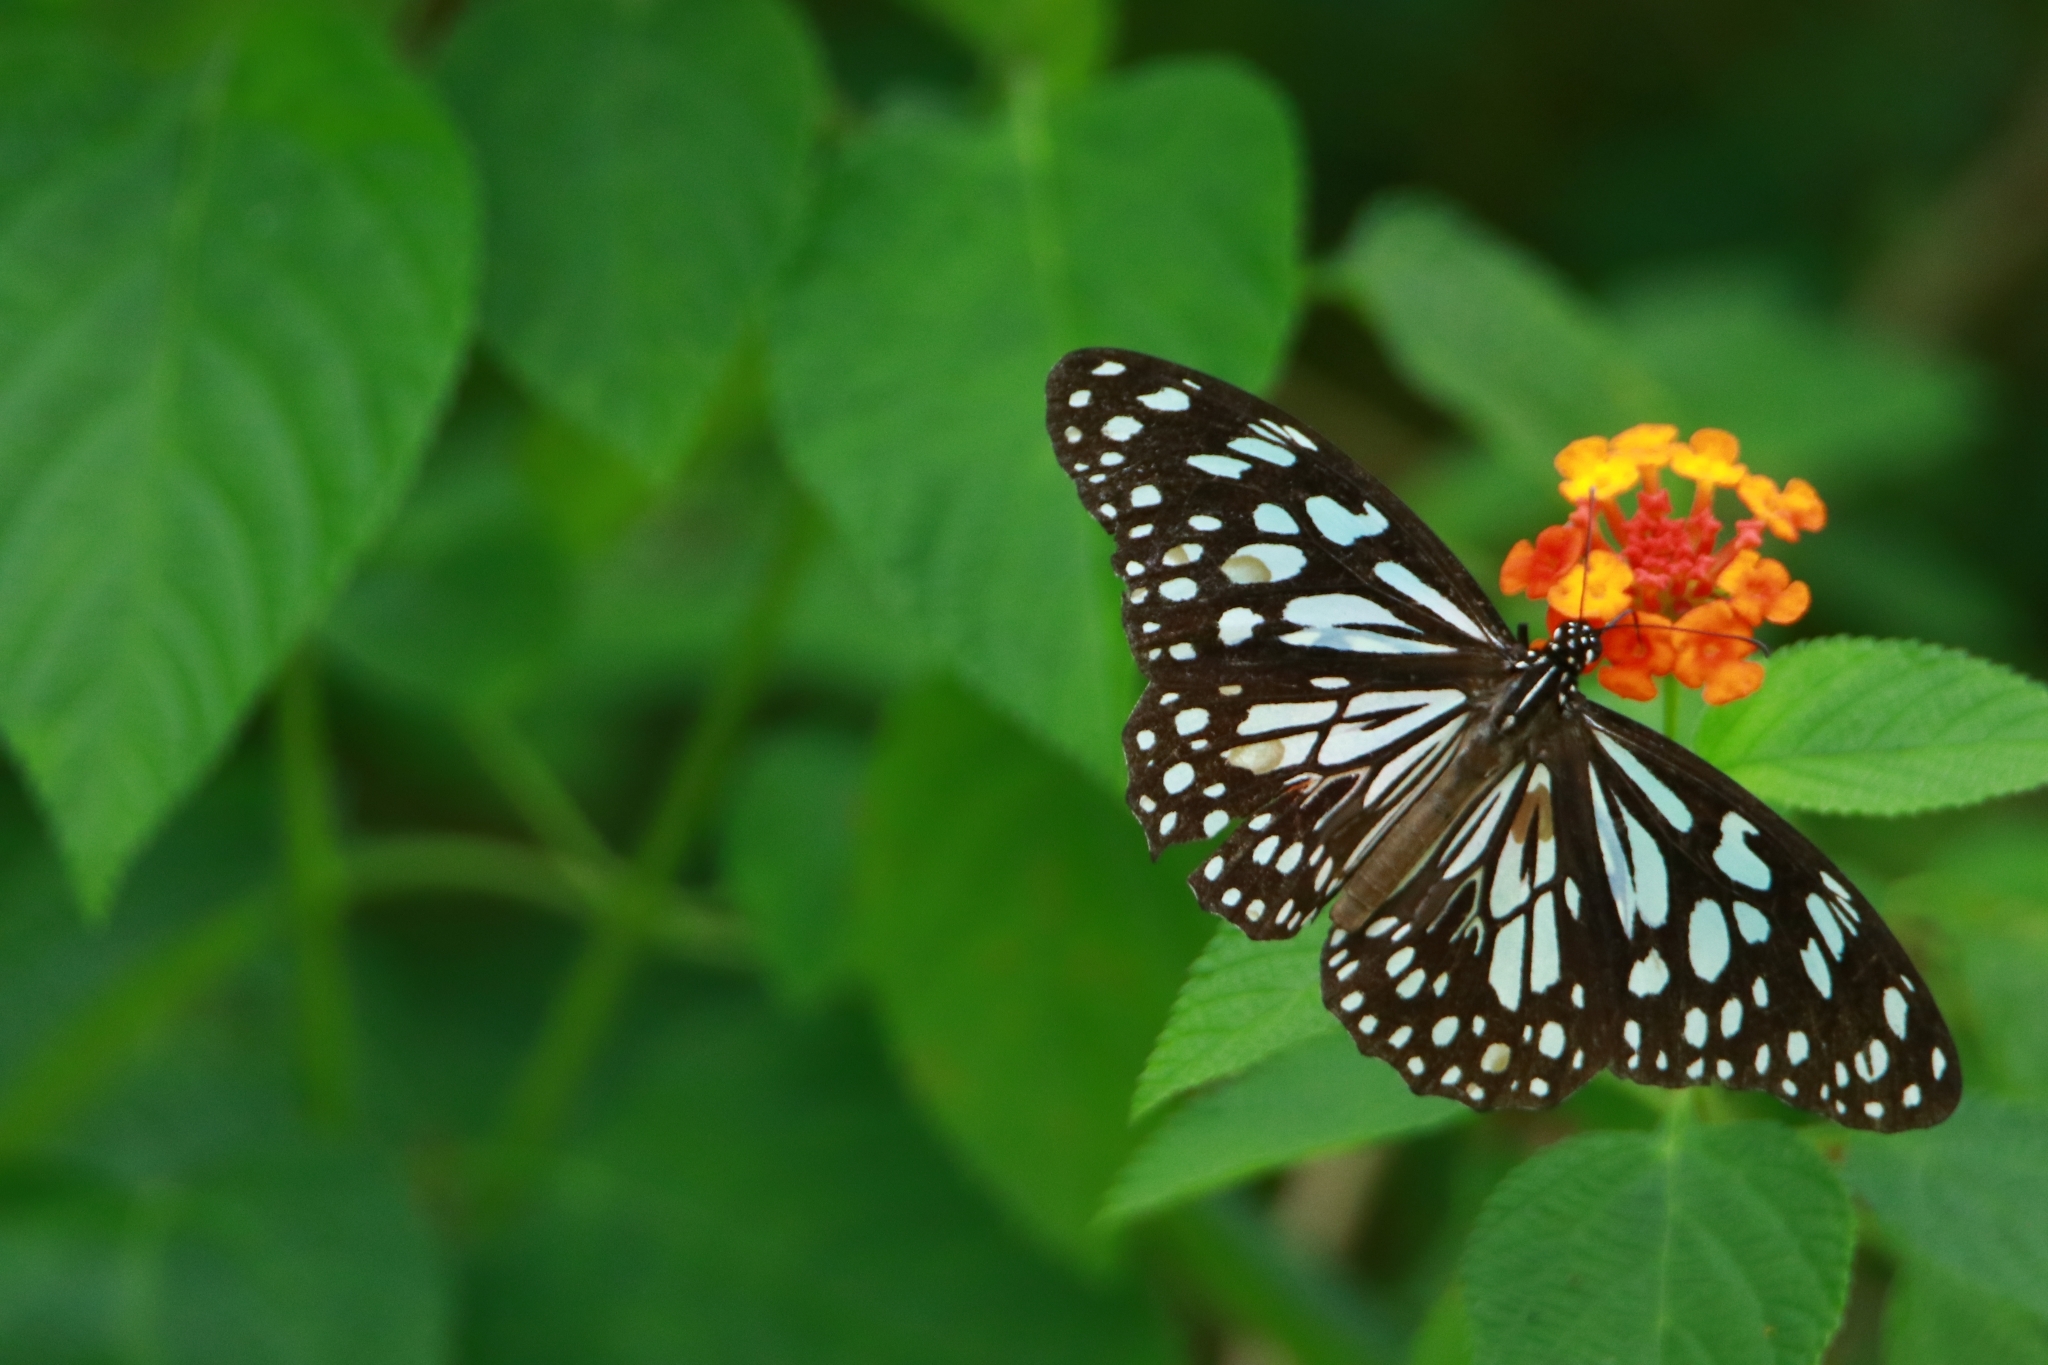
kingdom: Animalia
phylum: Arthropoda
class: Insecta
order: Lepidoptera
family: Nymphalidae
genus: Tirumala
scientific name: Tirumala limniace
